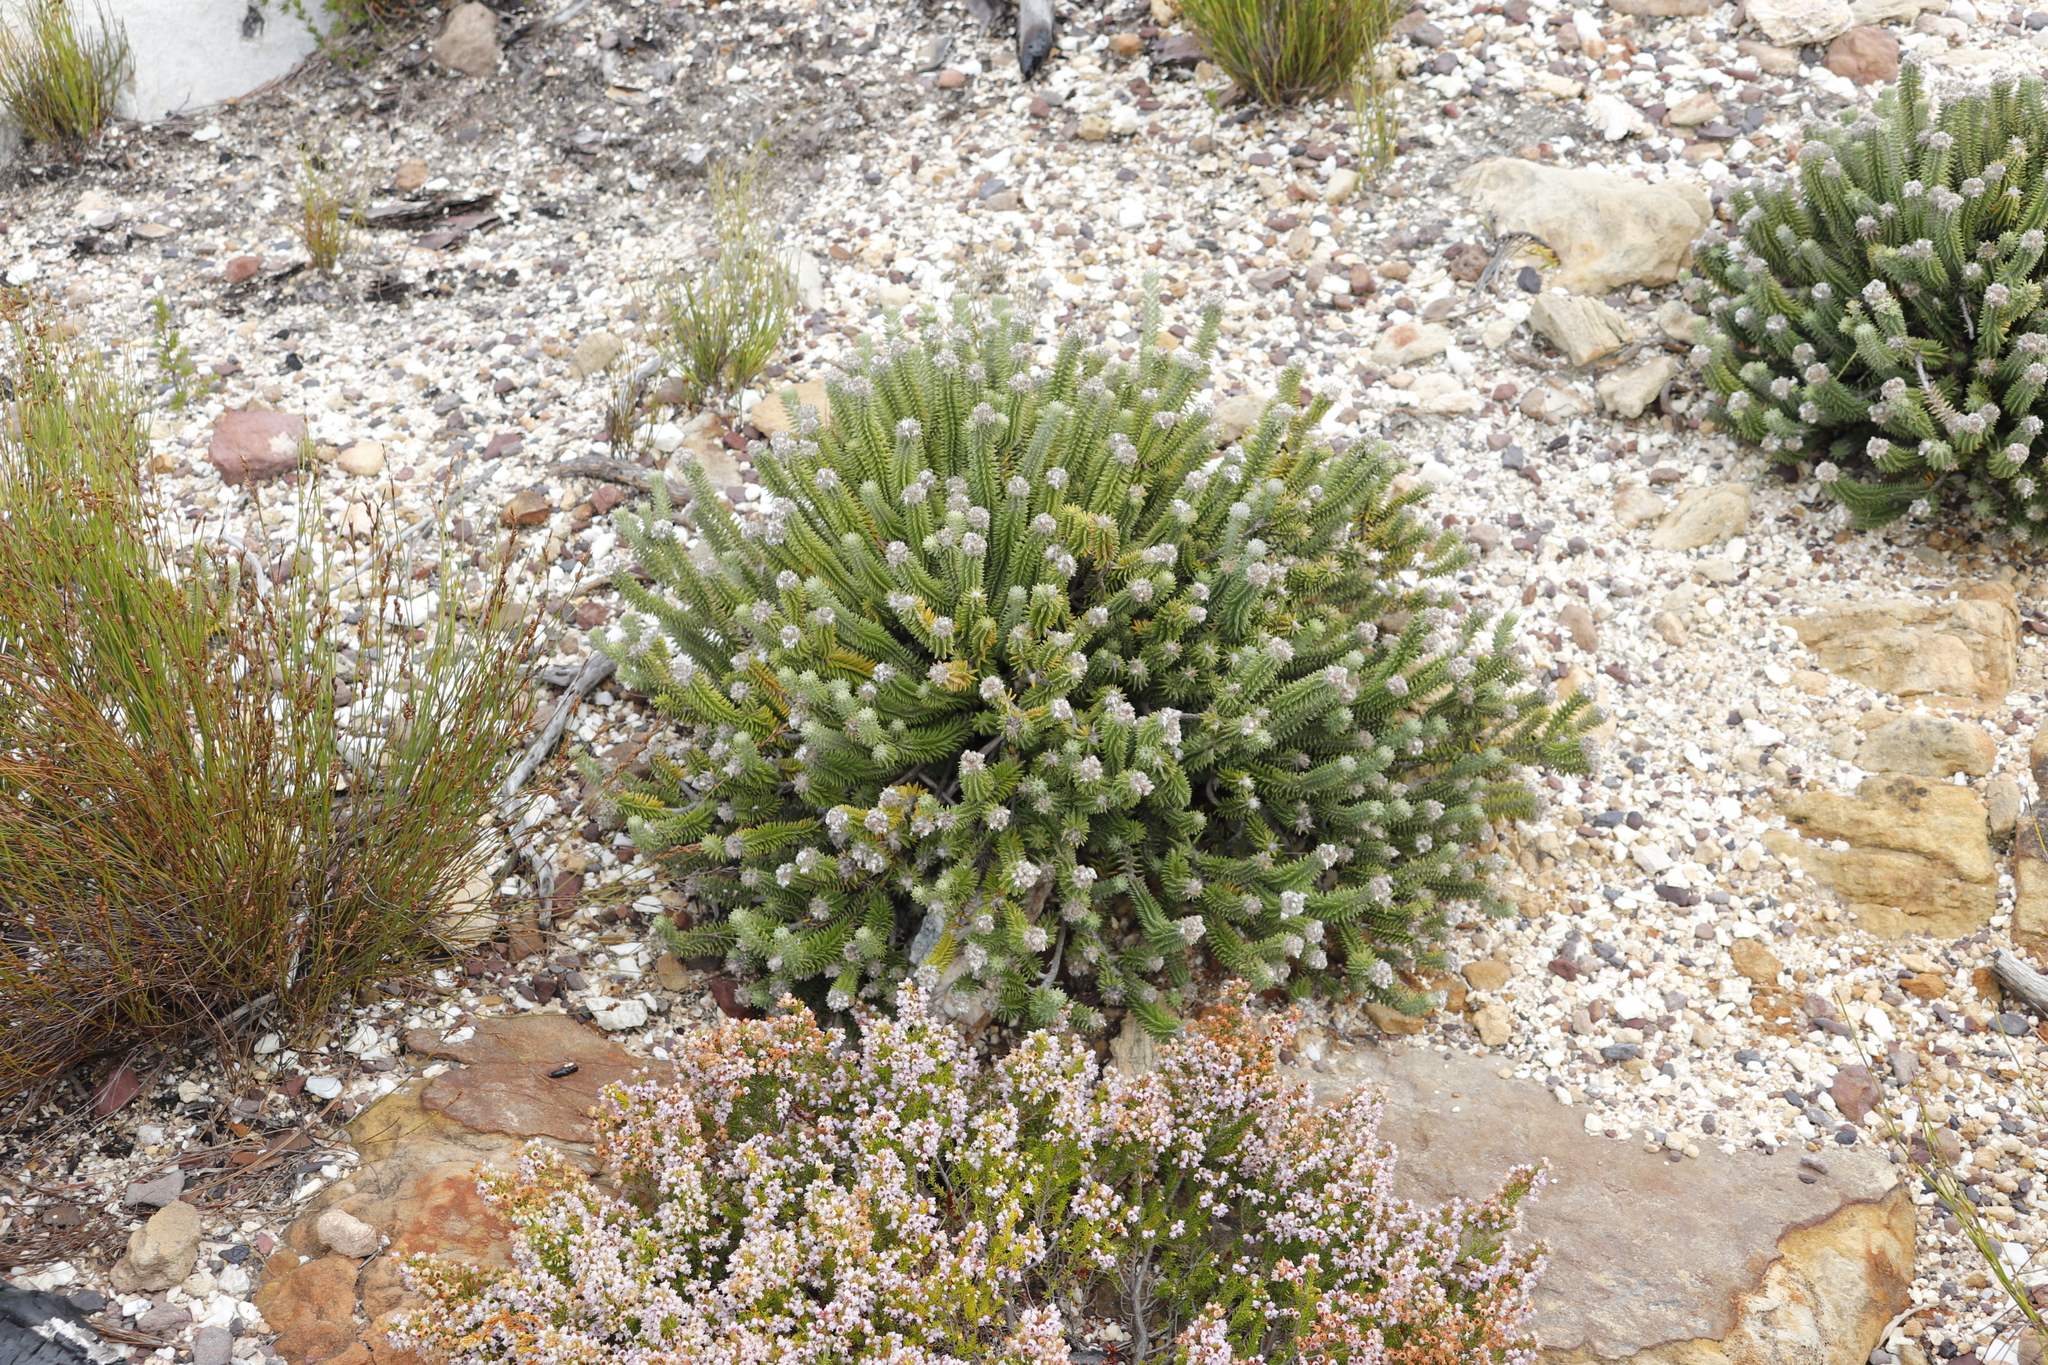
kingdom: Plantae
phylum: Tracheophyta
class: Magnoliopsida
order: Lamiales
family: Stilbaceae
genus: Kogelbergia
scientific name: Kogelbergia verticillata
